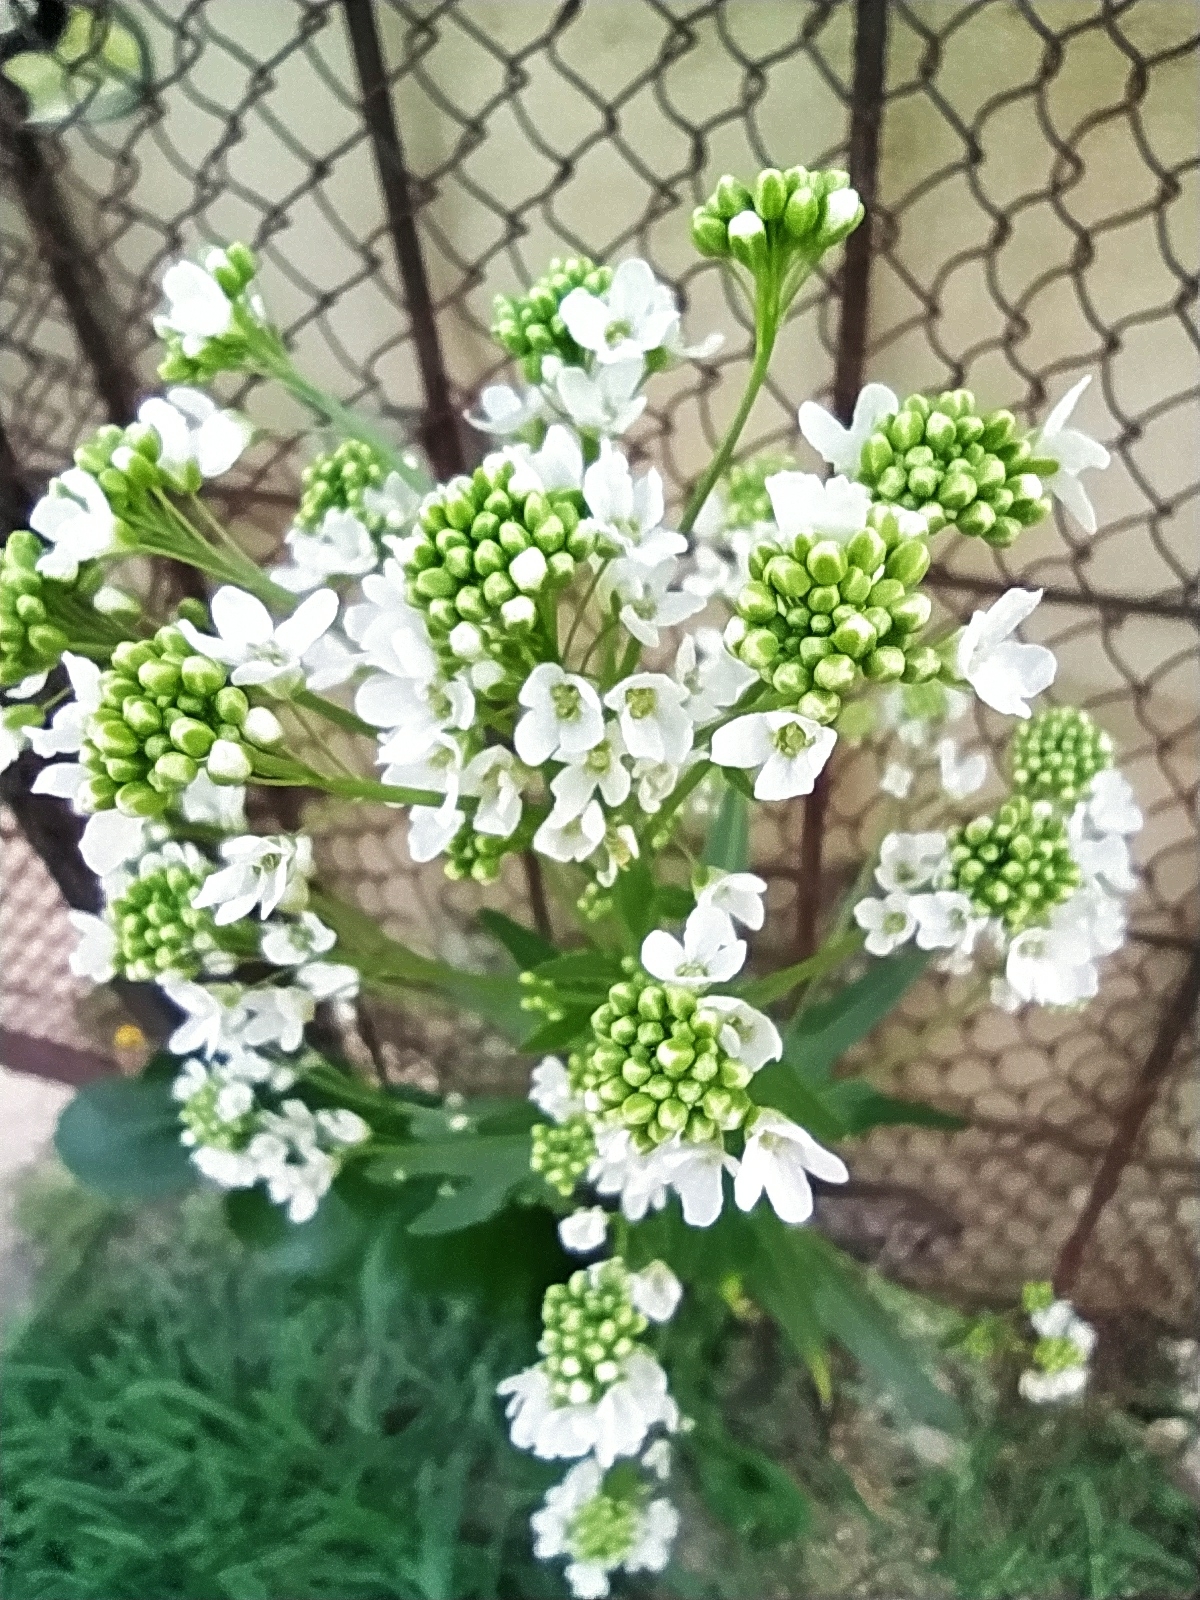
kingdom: Plantae
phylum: Tracheophyta
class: Magnoliopsida
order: Brassicales
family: Brassicaceae
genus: Armoracia
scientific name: Armoracia rusticana
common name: Horseradish
